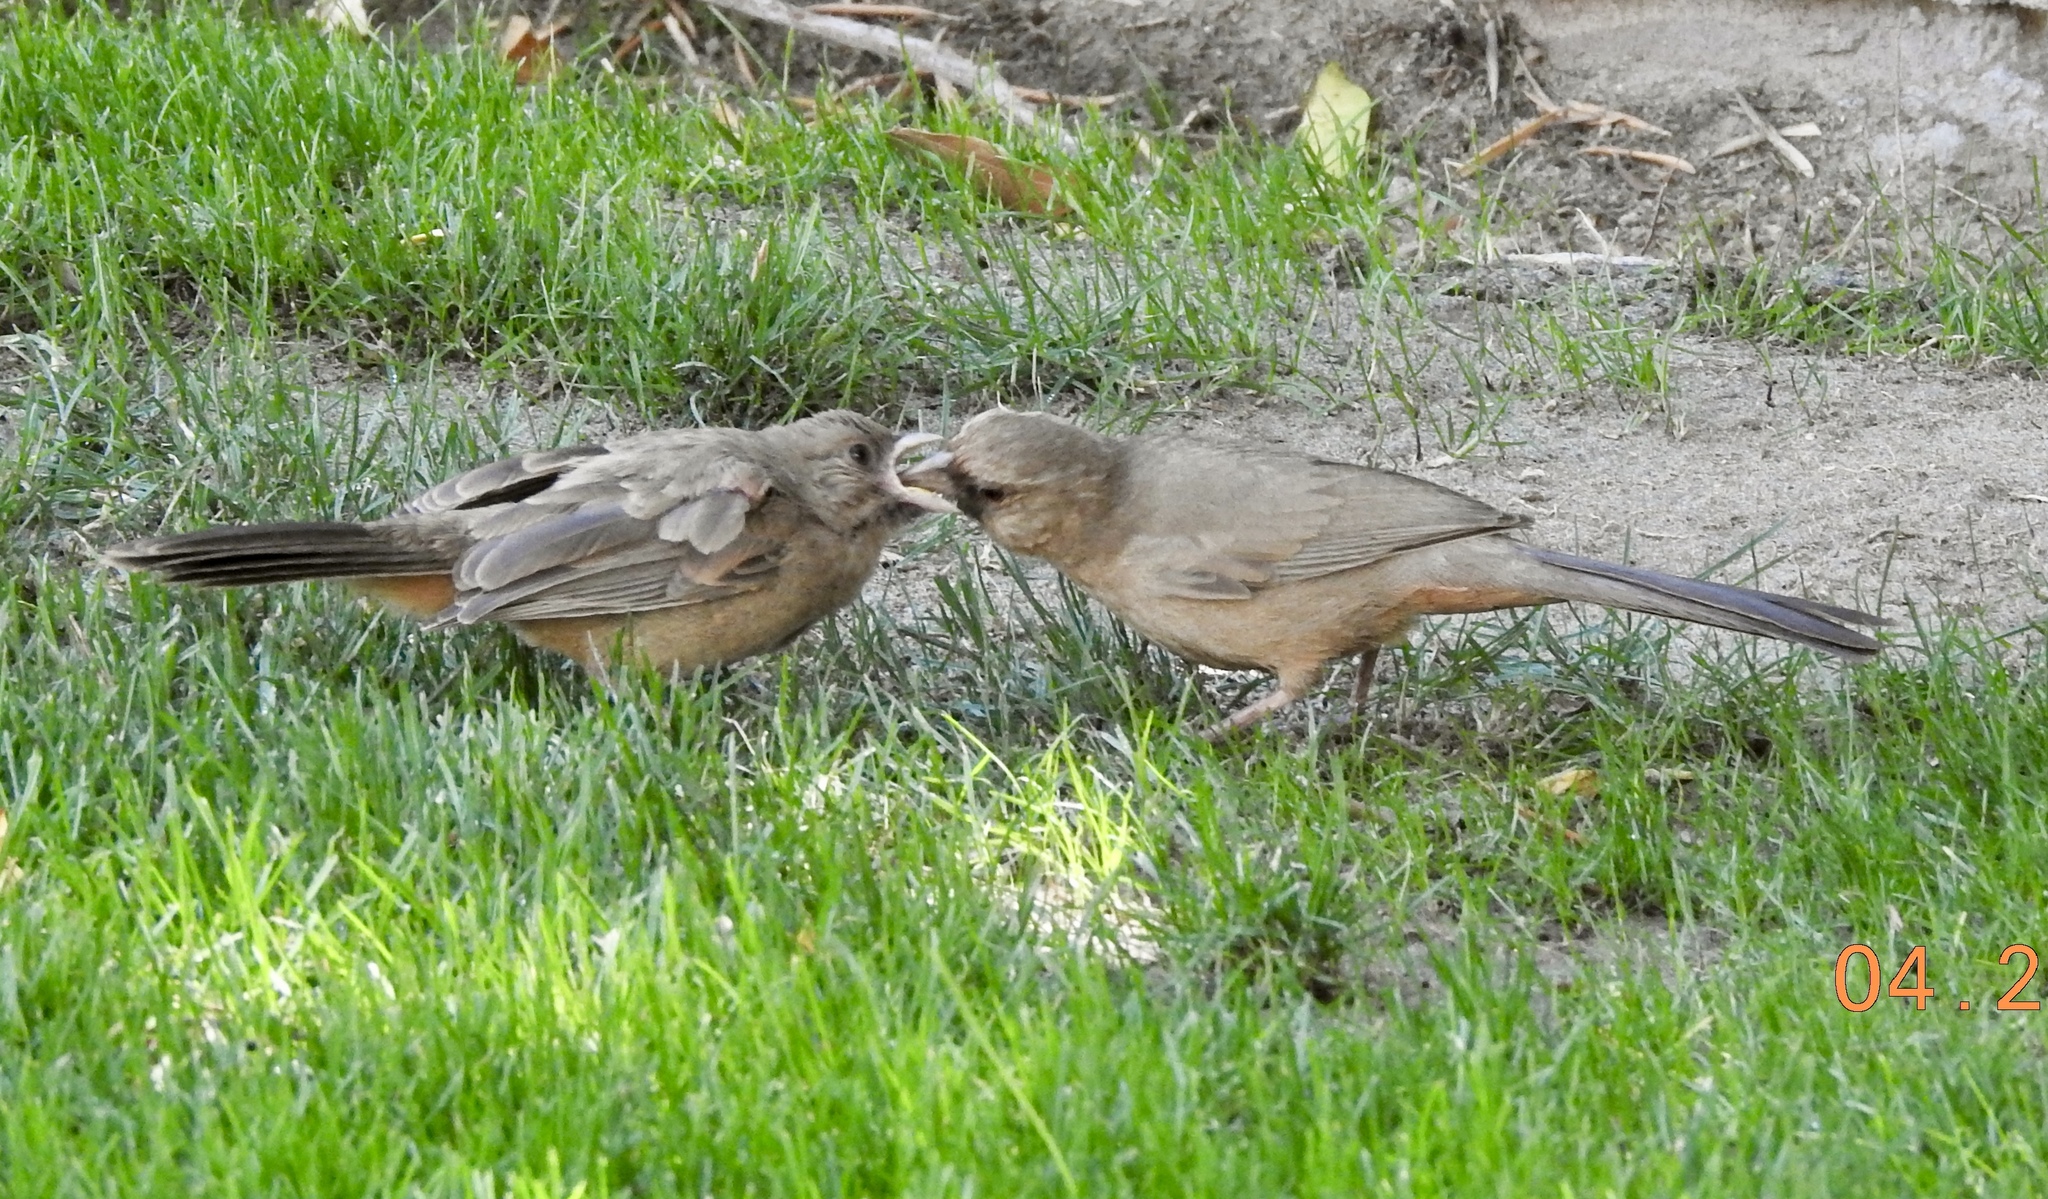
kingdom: Animalia
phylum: Chordata
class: Aves
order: Passeriformes
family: Passerellidae
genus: Melozone
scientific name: Melozone aberti
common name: Abert's towhee
